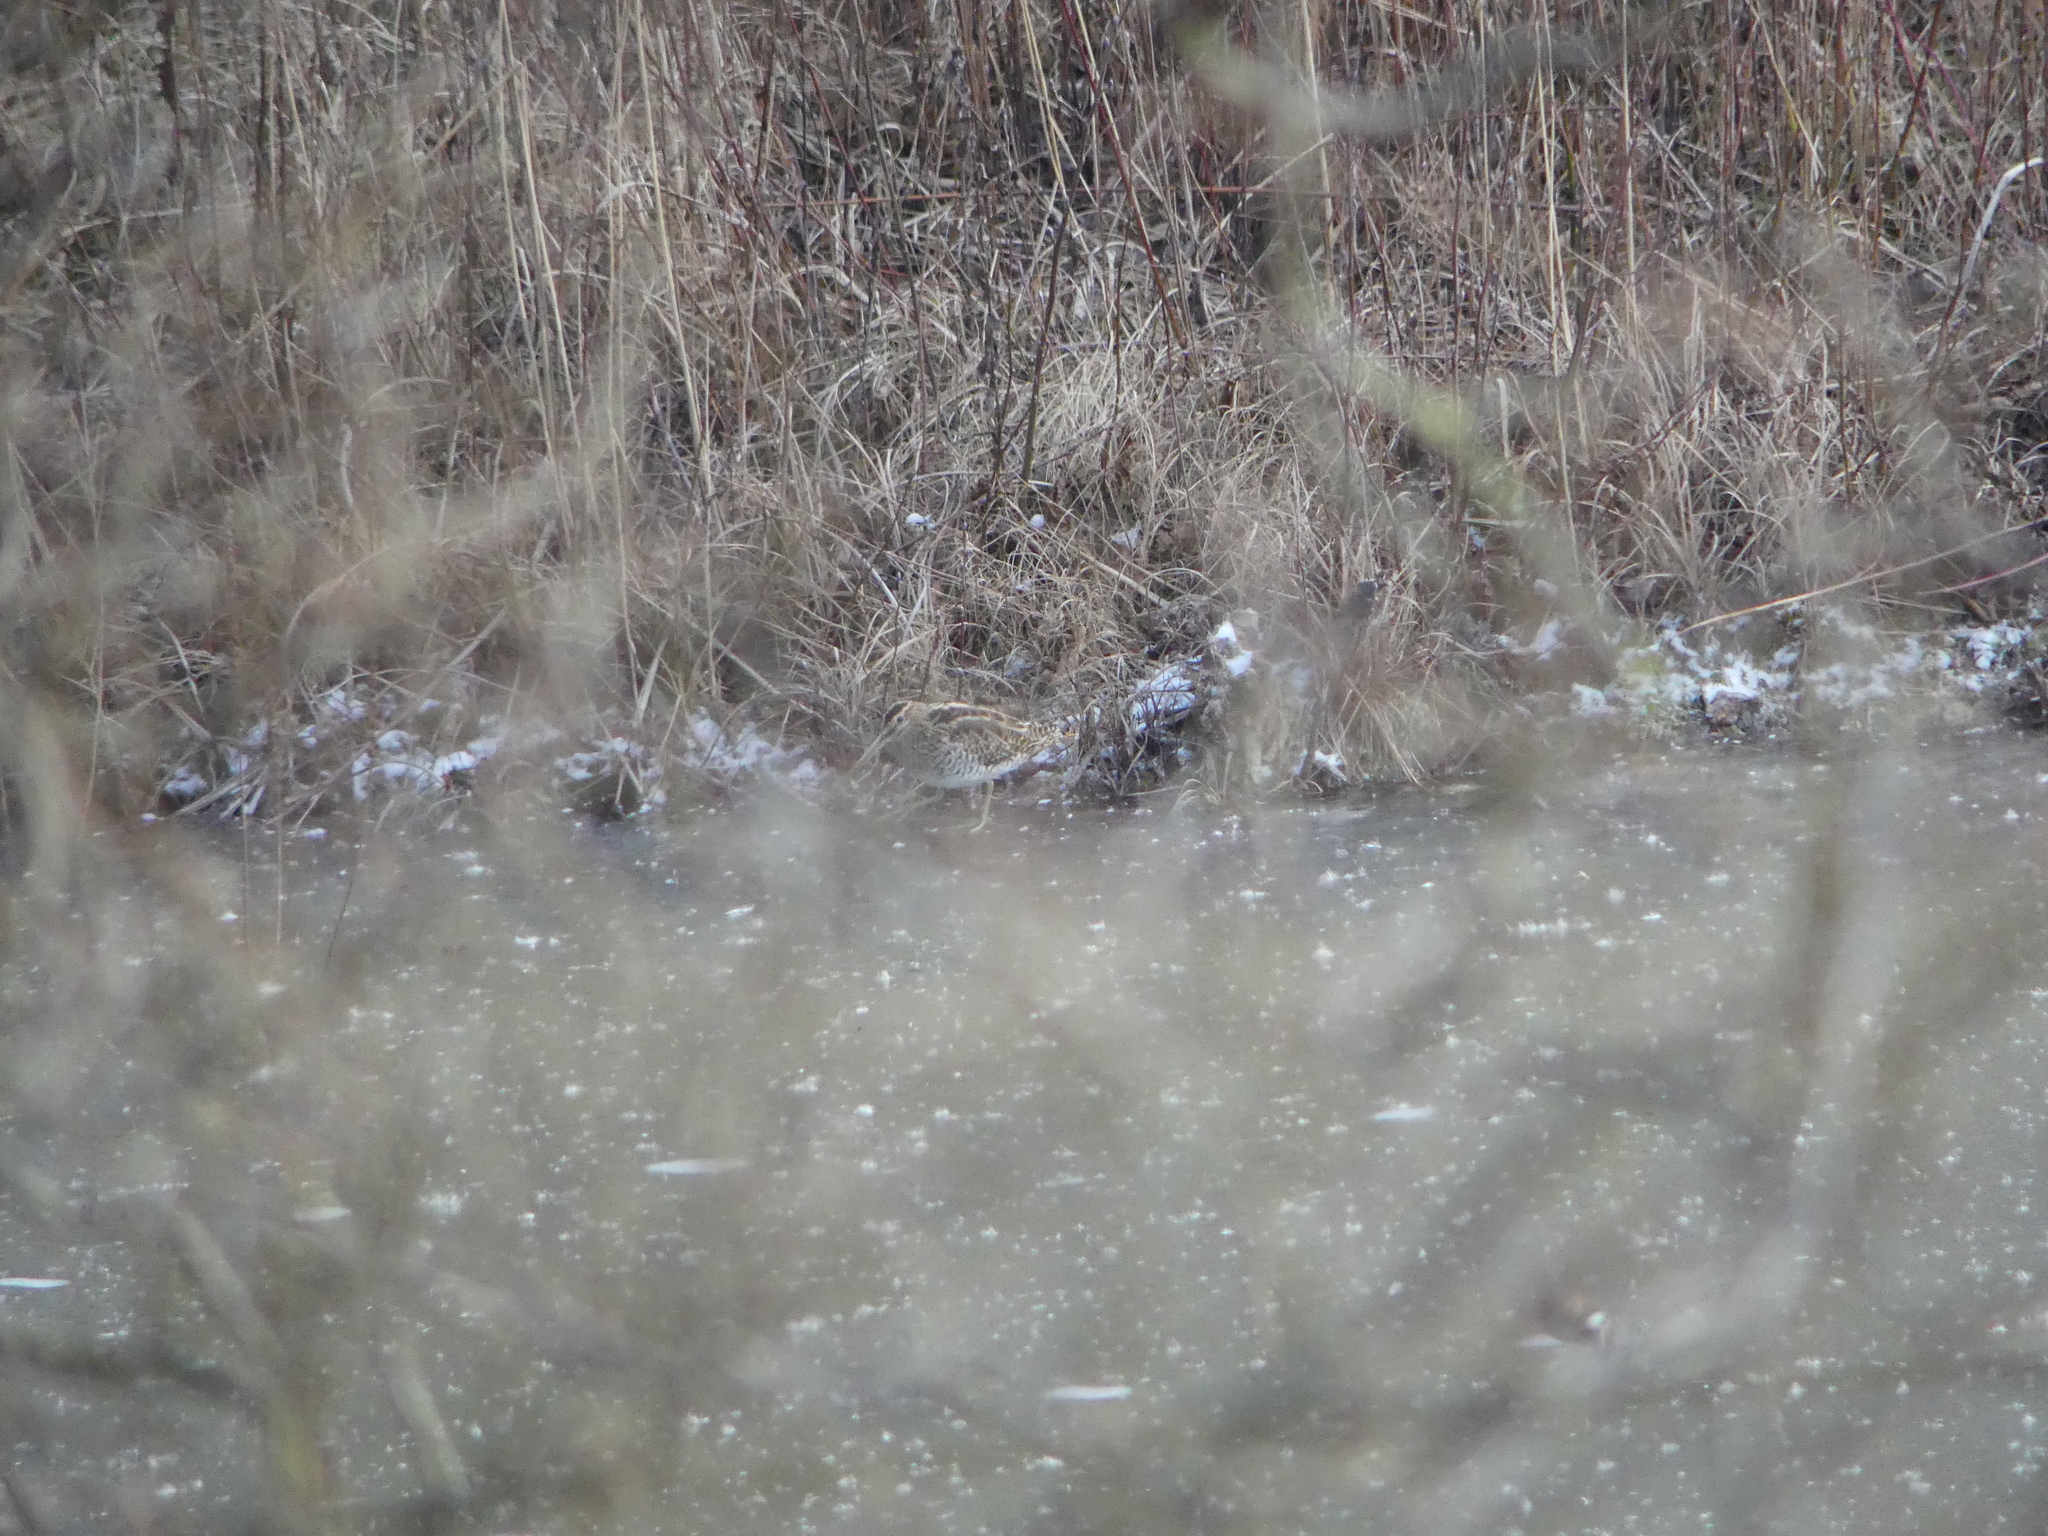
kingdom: Animalia
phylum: Chordata
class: Aves
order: Charadriiformes
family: Scolopacidae
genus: Gallinago
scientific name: Gallinago gallinago
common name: Common snipe
